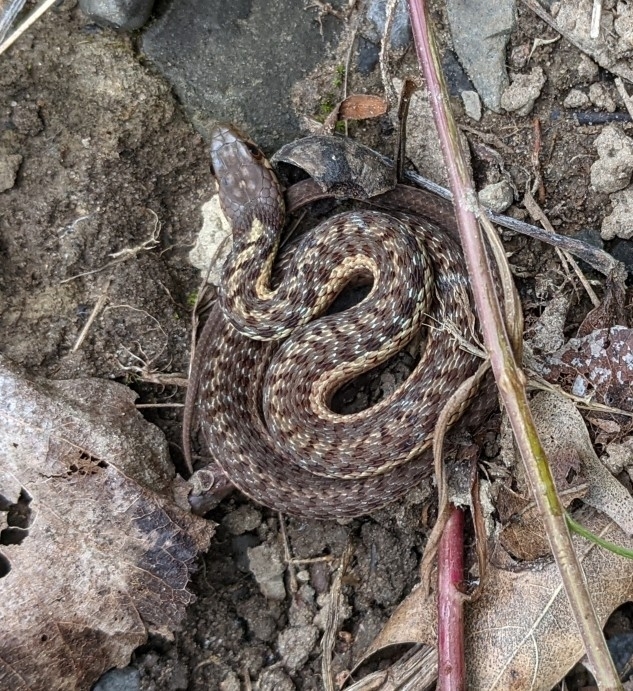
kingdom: Animalia
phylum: Chordata
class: Squamata
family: Colubridae
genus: Thamnophis
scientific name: Thamnophis sirtalis
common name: Common garter snake
